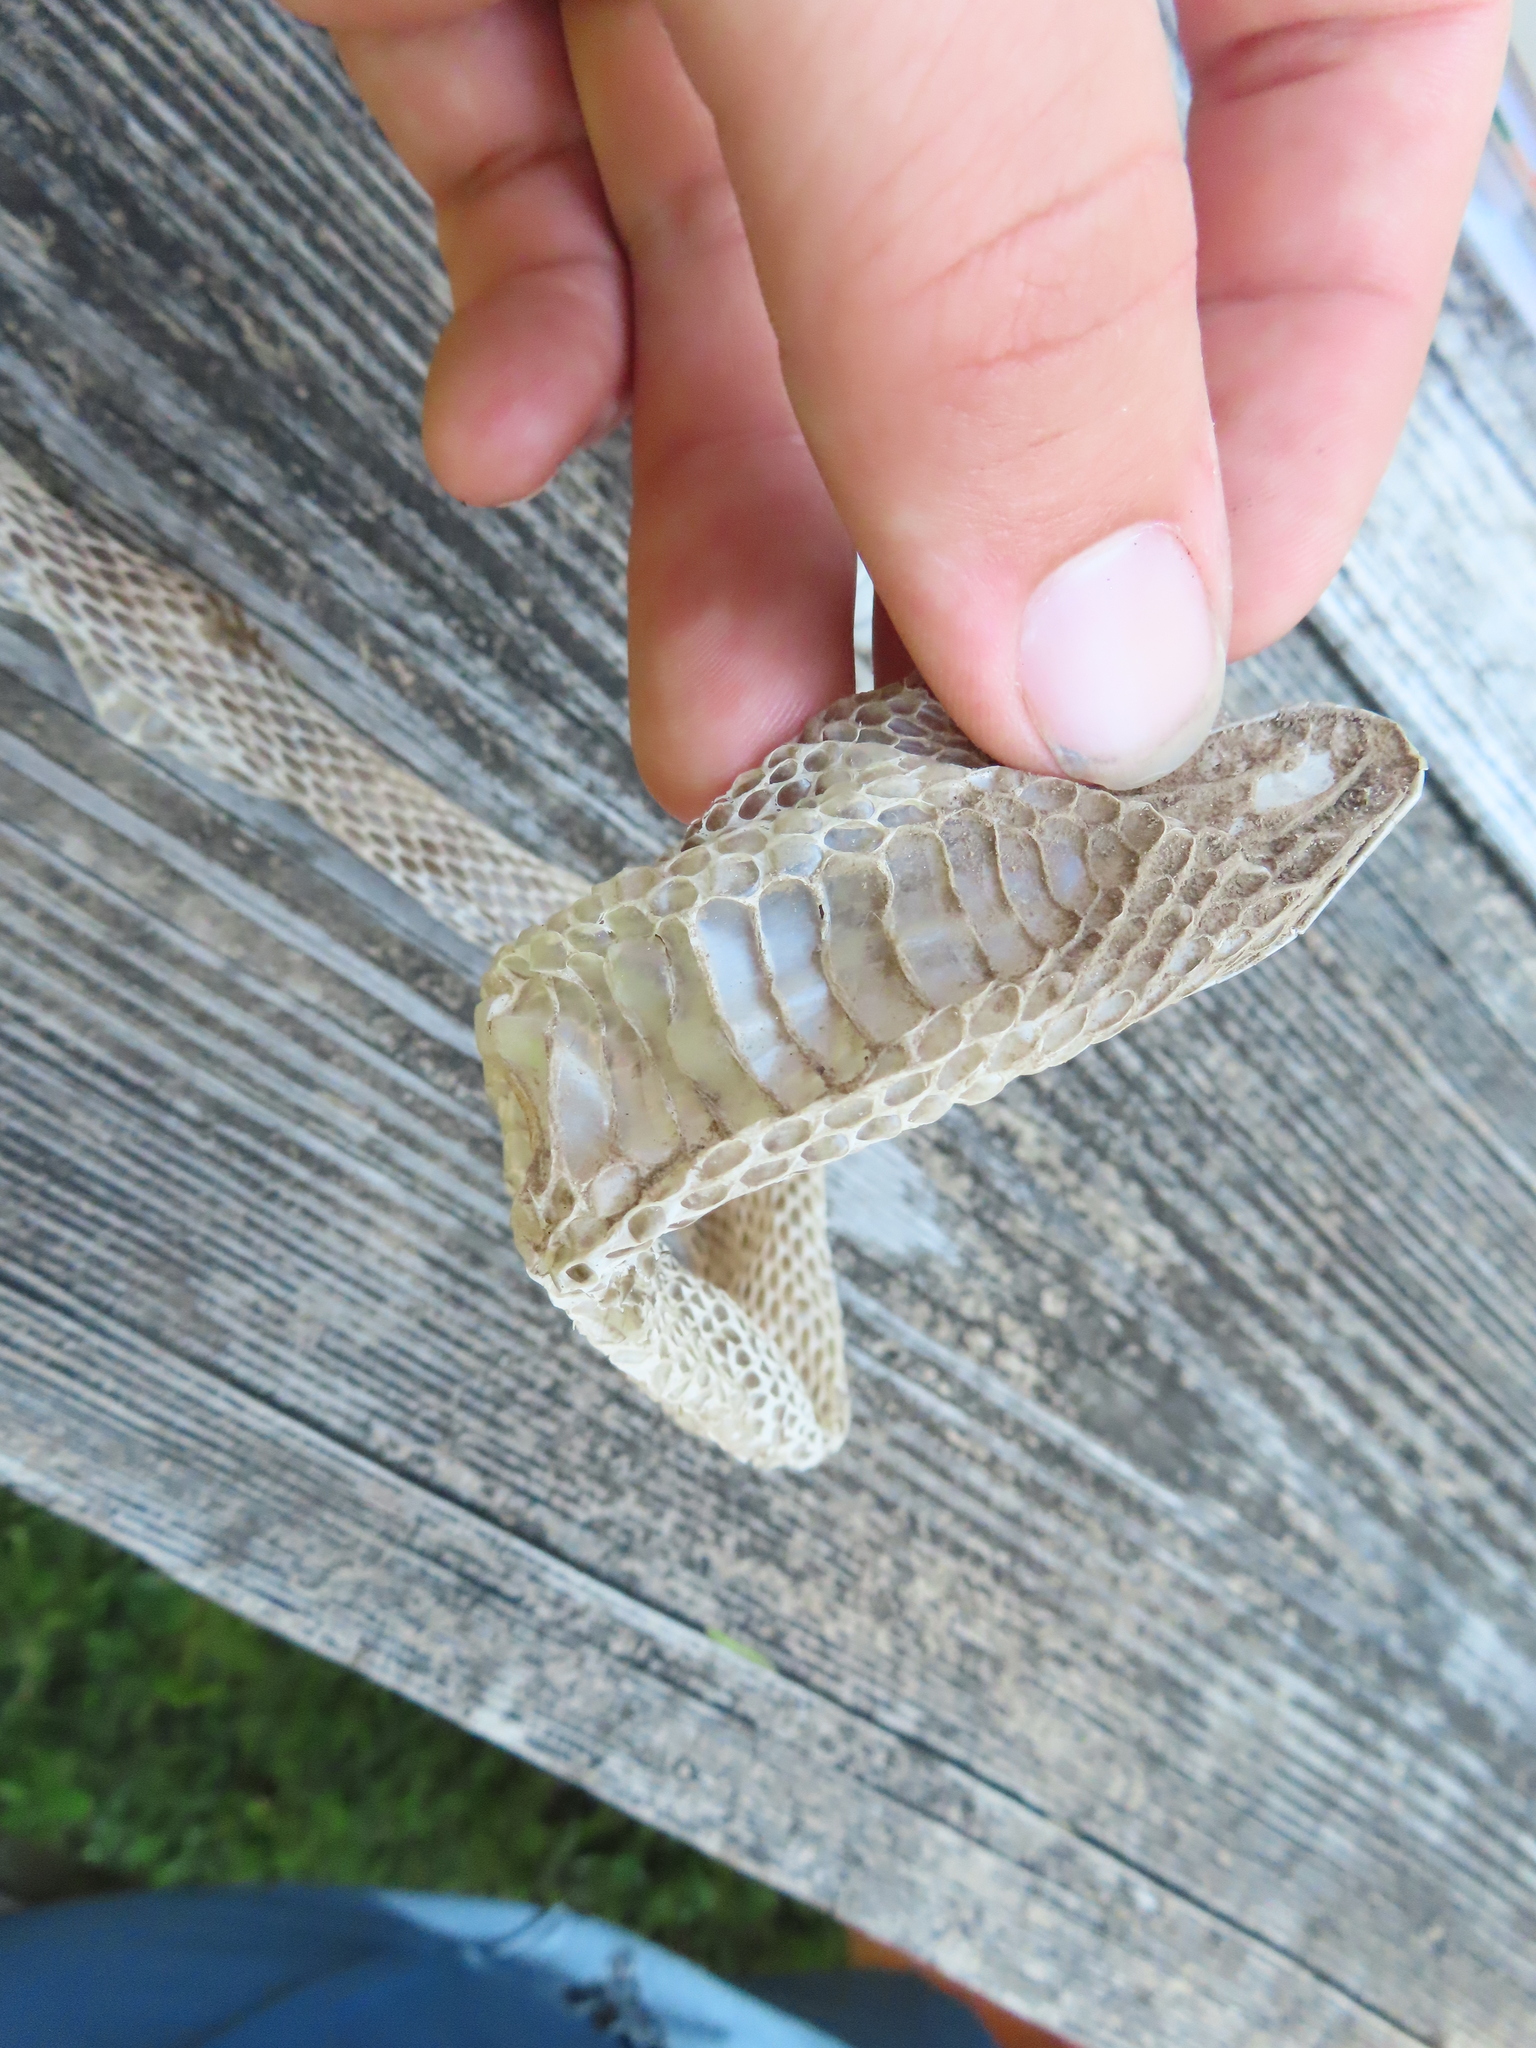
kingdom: Animalia
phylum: Chordata
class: Squamata
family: Colubridae
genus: Coluber
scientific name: Coluber constrictor
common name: Eastern racer
